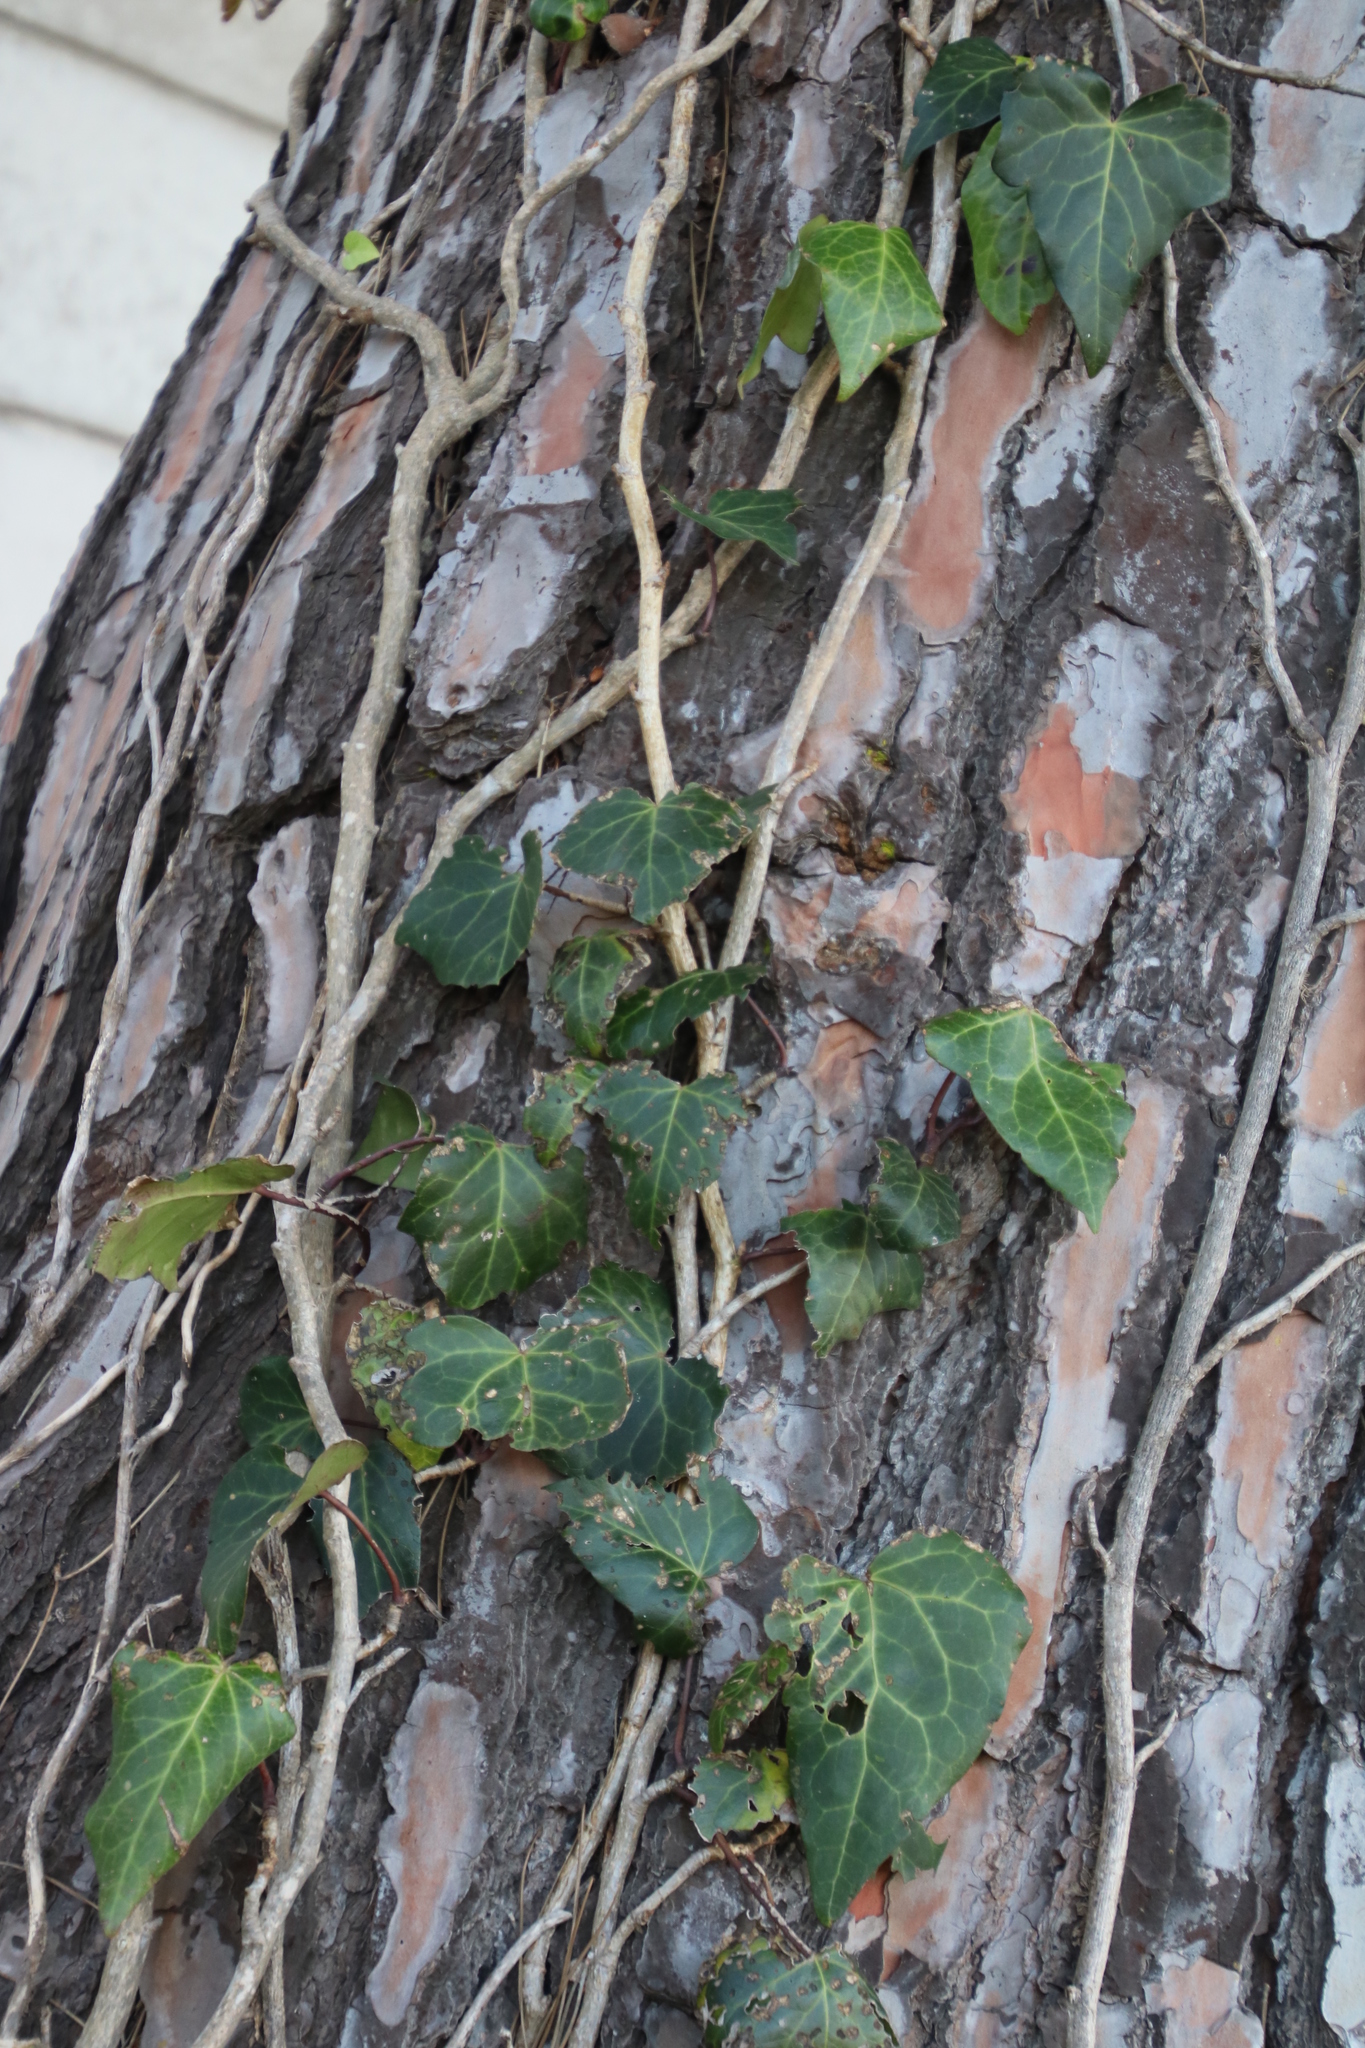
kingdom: Plantae
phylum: Tracheophyta
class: Magnoliopsida
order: Apiales
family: Araliaceae
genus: Hedera
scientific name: Hedera canariensis
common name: Madeira ivy
